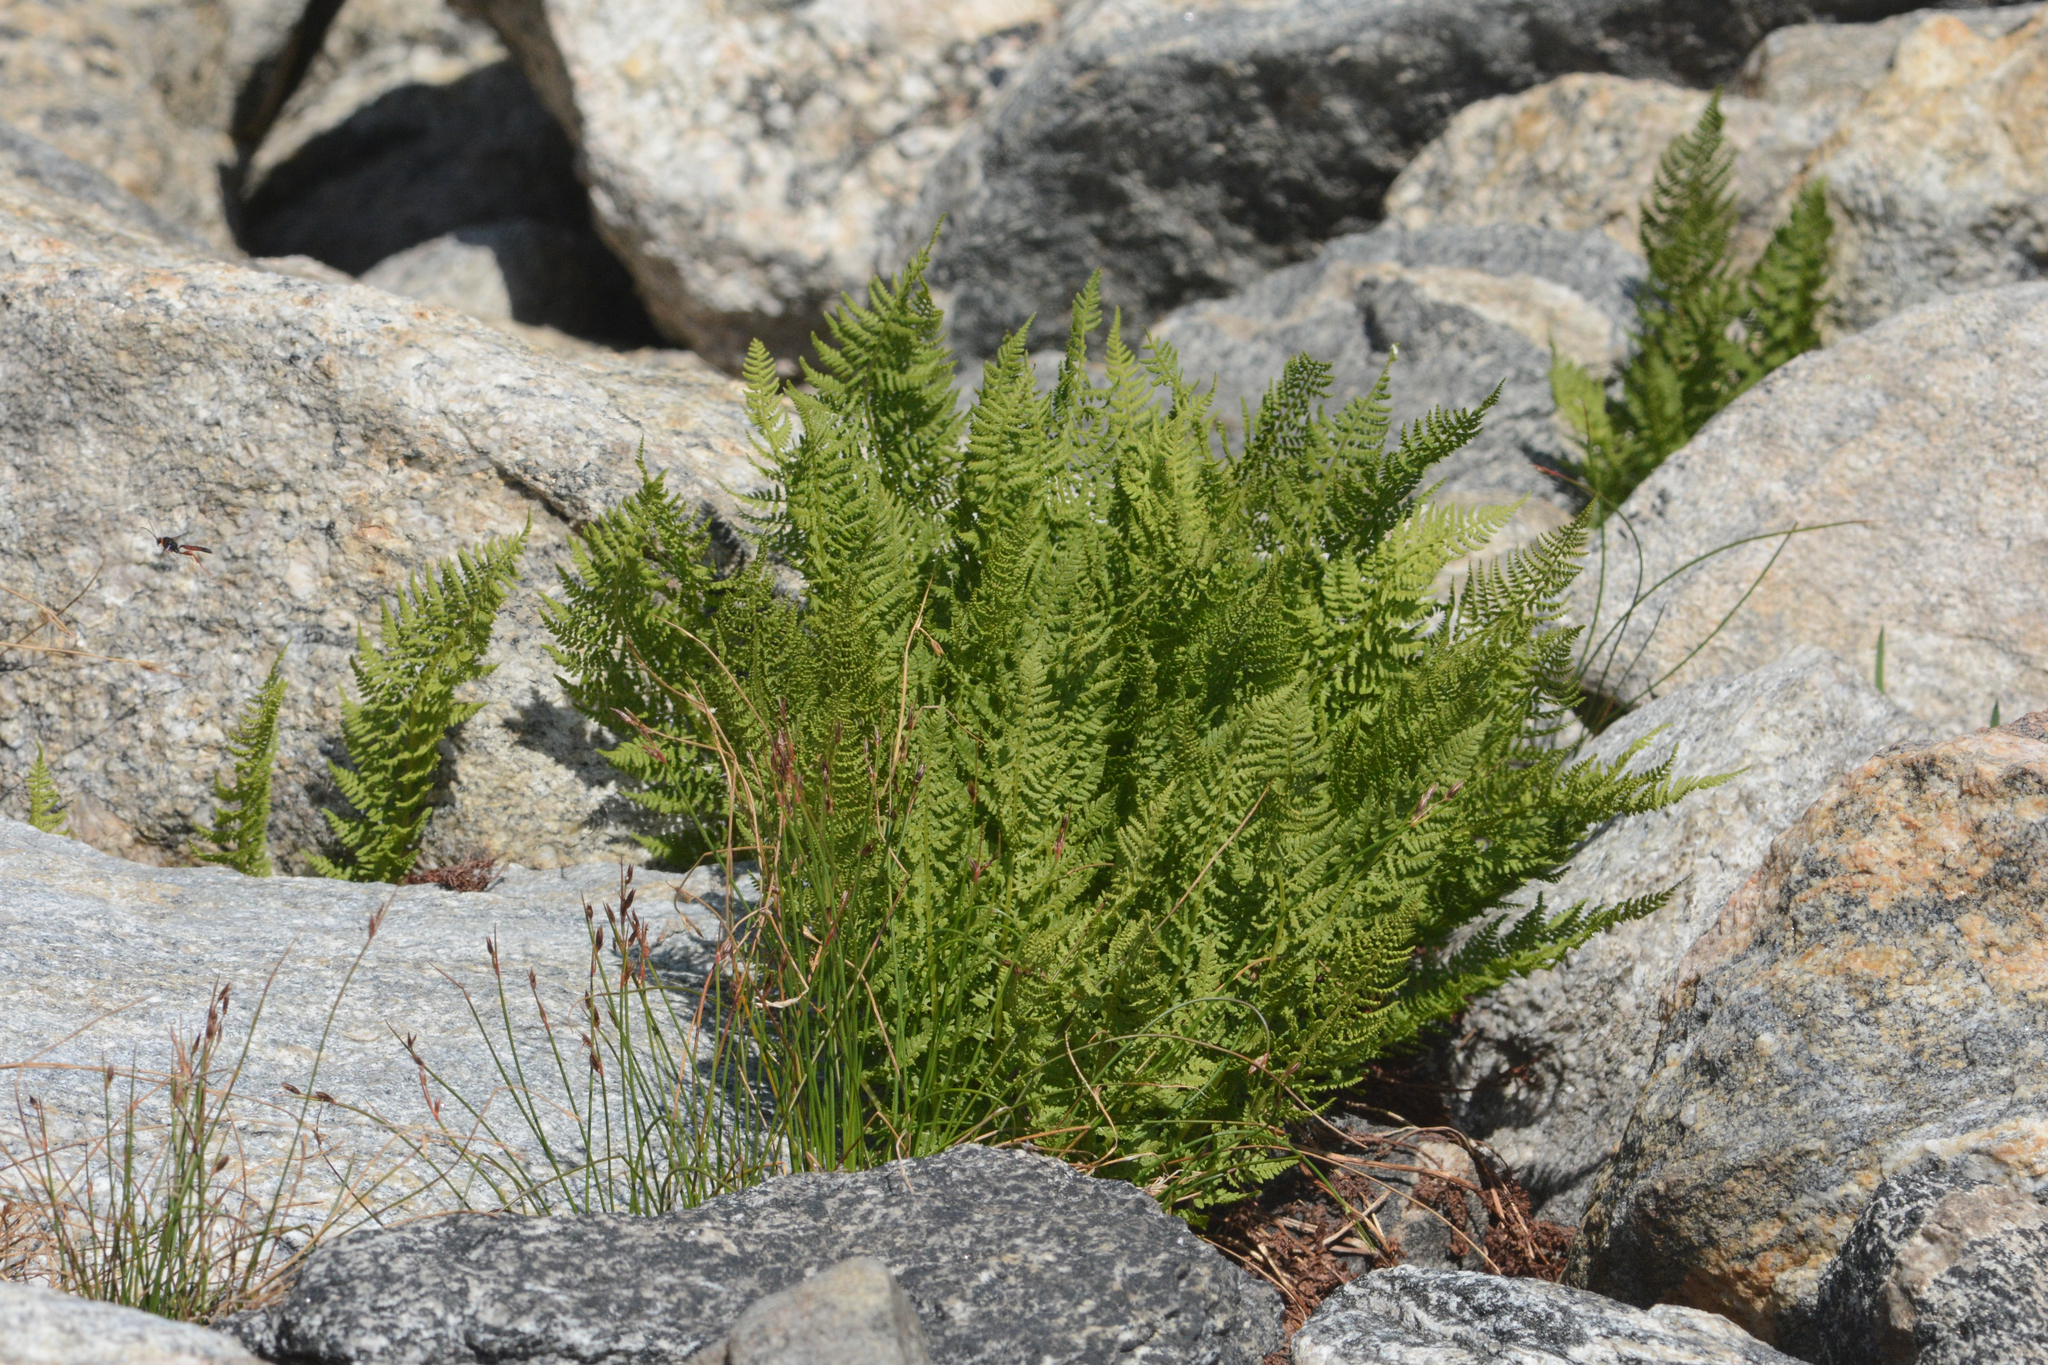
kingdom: Plantae
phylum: Tracheophyta
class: Polypodiopsida
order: Polypodiales
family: Athyriaceae
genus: Athyrium
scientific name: Athyrium americanum
